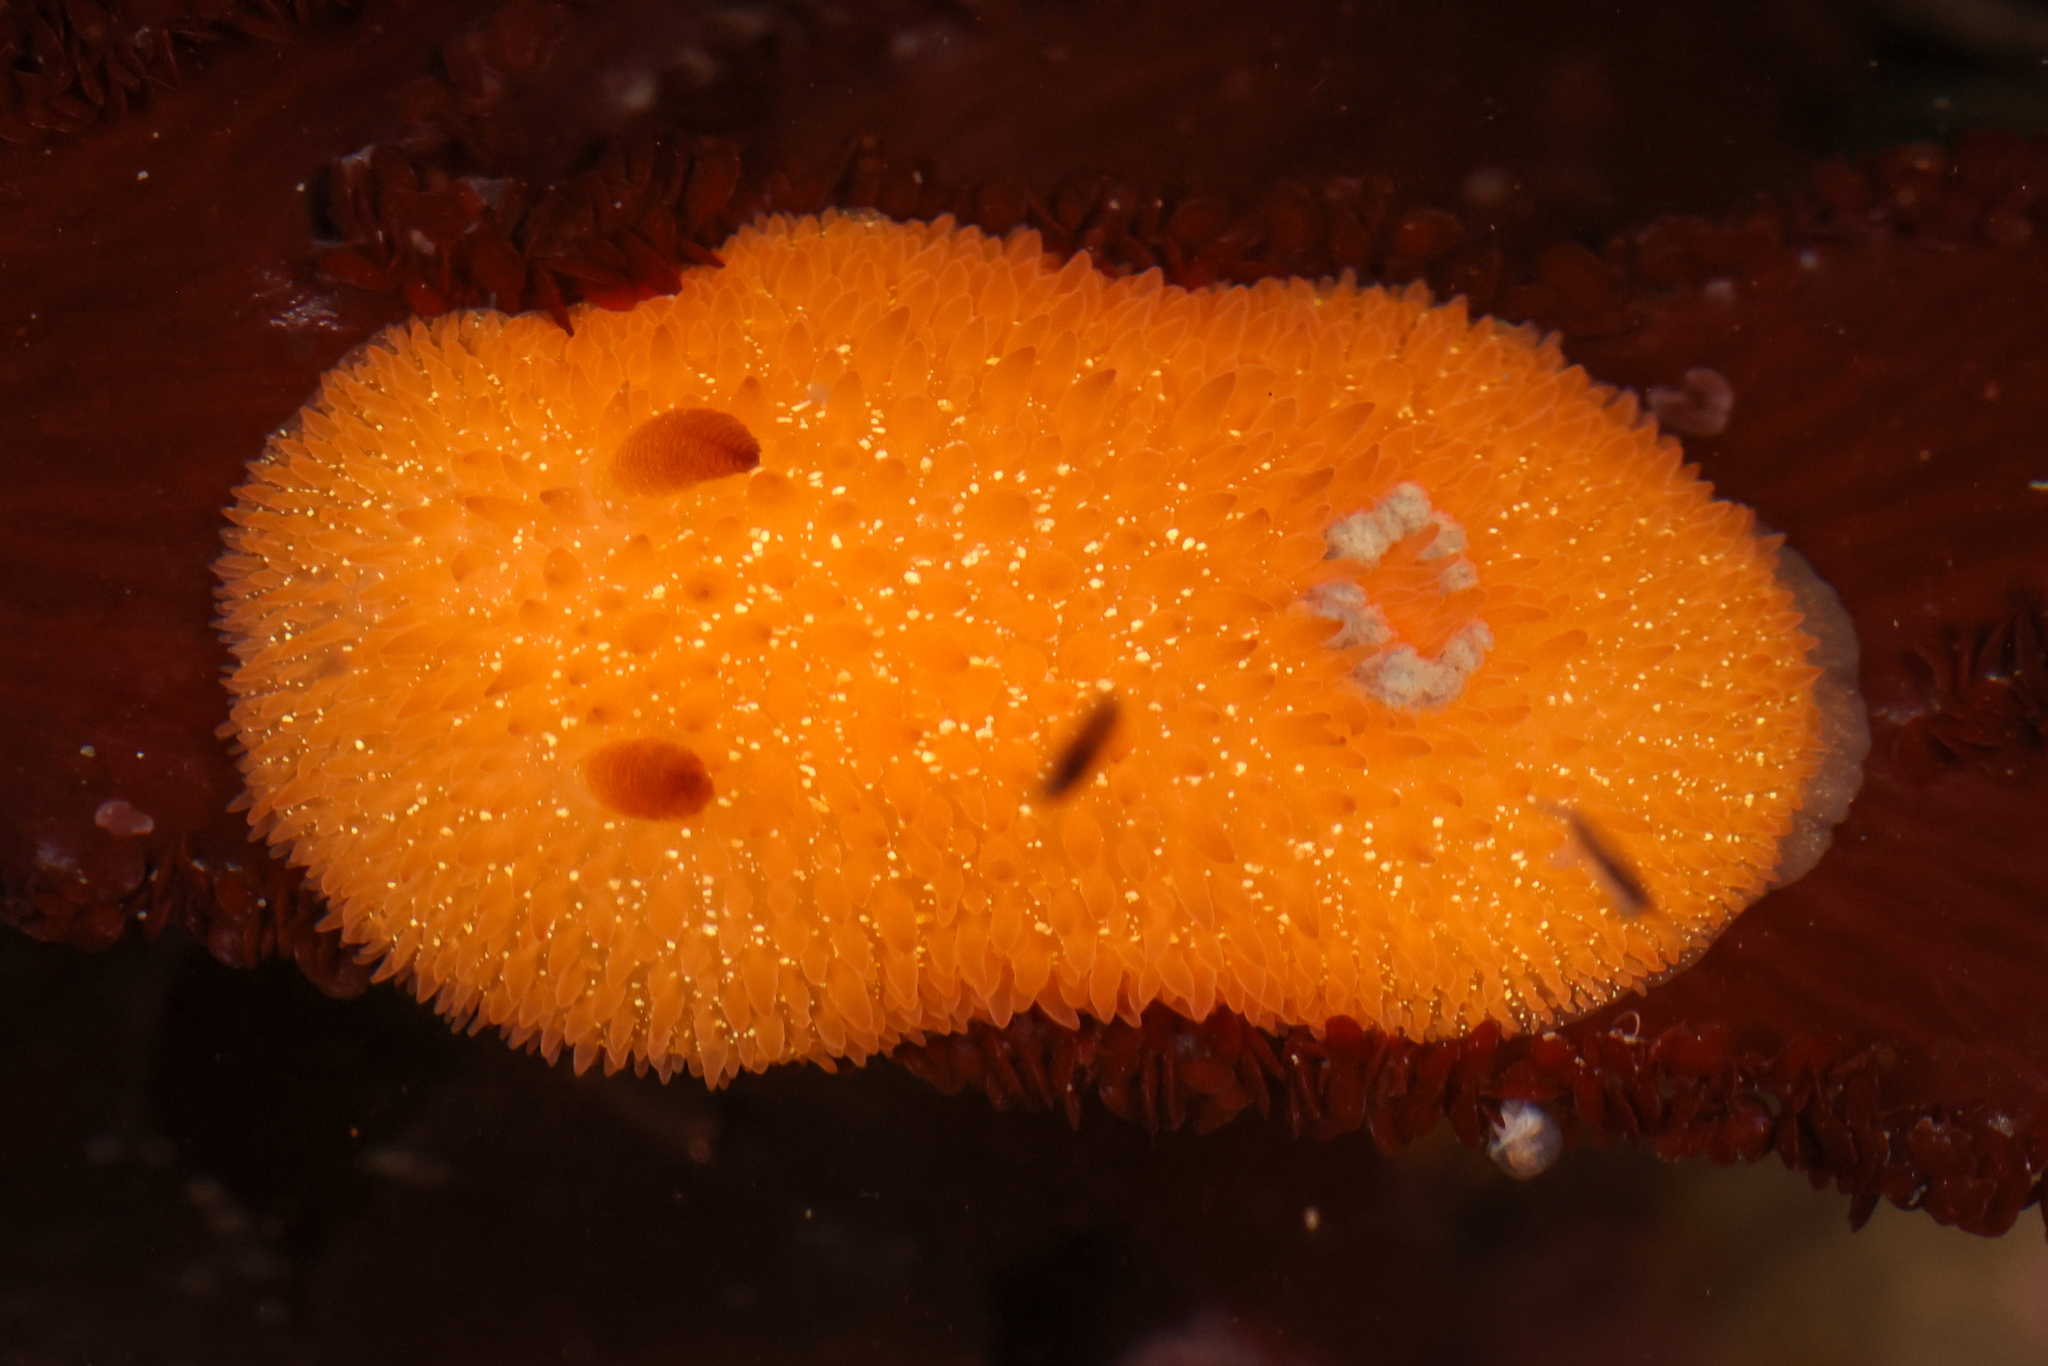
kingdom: Animalia
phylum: Mollusca
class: Gastropoda
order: Nudibranchia
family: Onchidorididae
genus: Acanthodoris
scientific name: Acanthodoris lutea
